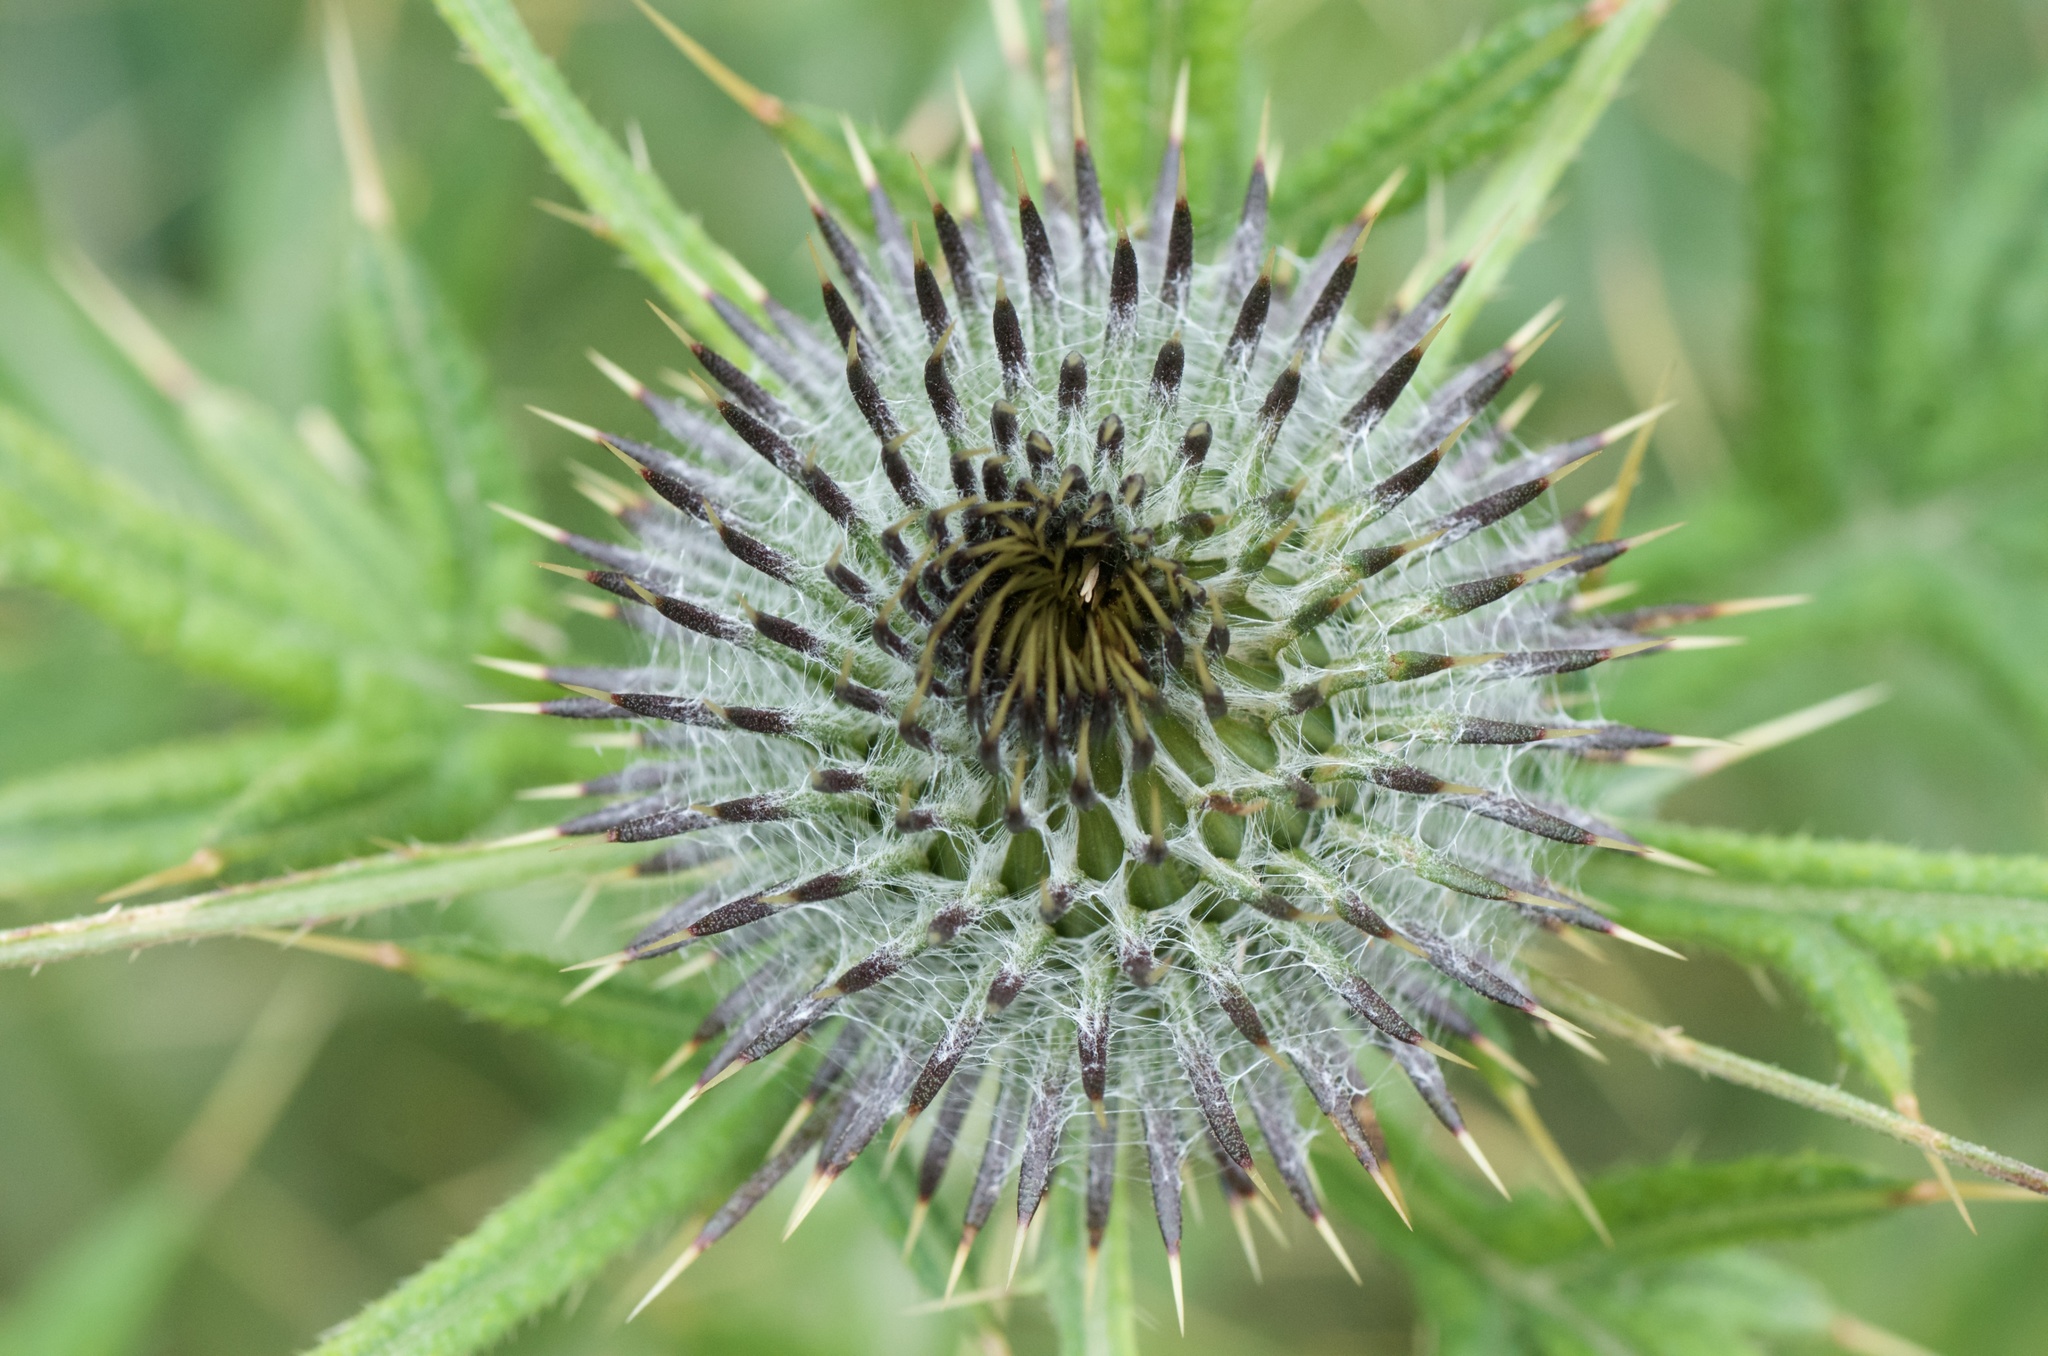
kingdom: Plantae
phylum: Tracheophyta
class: Magnoliopsida
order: Asterales
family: Asteraceae
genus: Cirsium
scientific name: Cirsium vulgare
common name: Bull thistle
